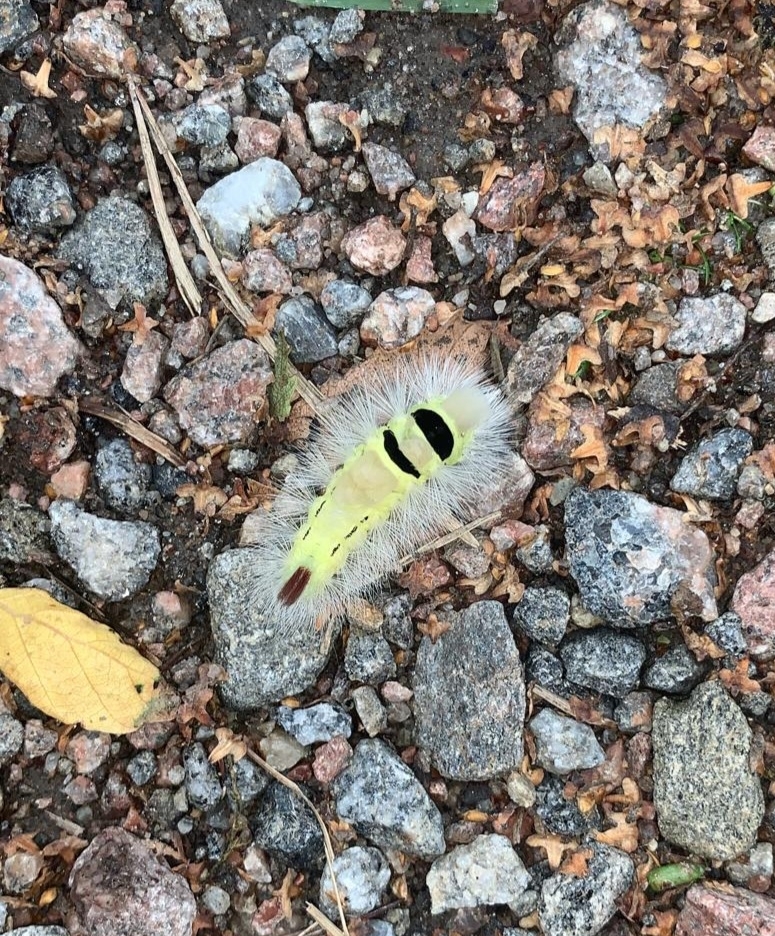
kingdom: Animalia
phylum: Arthropoda
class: Insecta
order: Lepidoptera
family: Erebidae
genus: Calliteara
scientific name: Calliteara pudibunda
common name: Pale tussock
